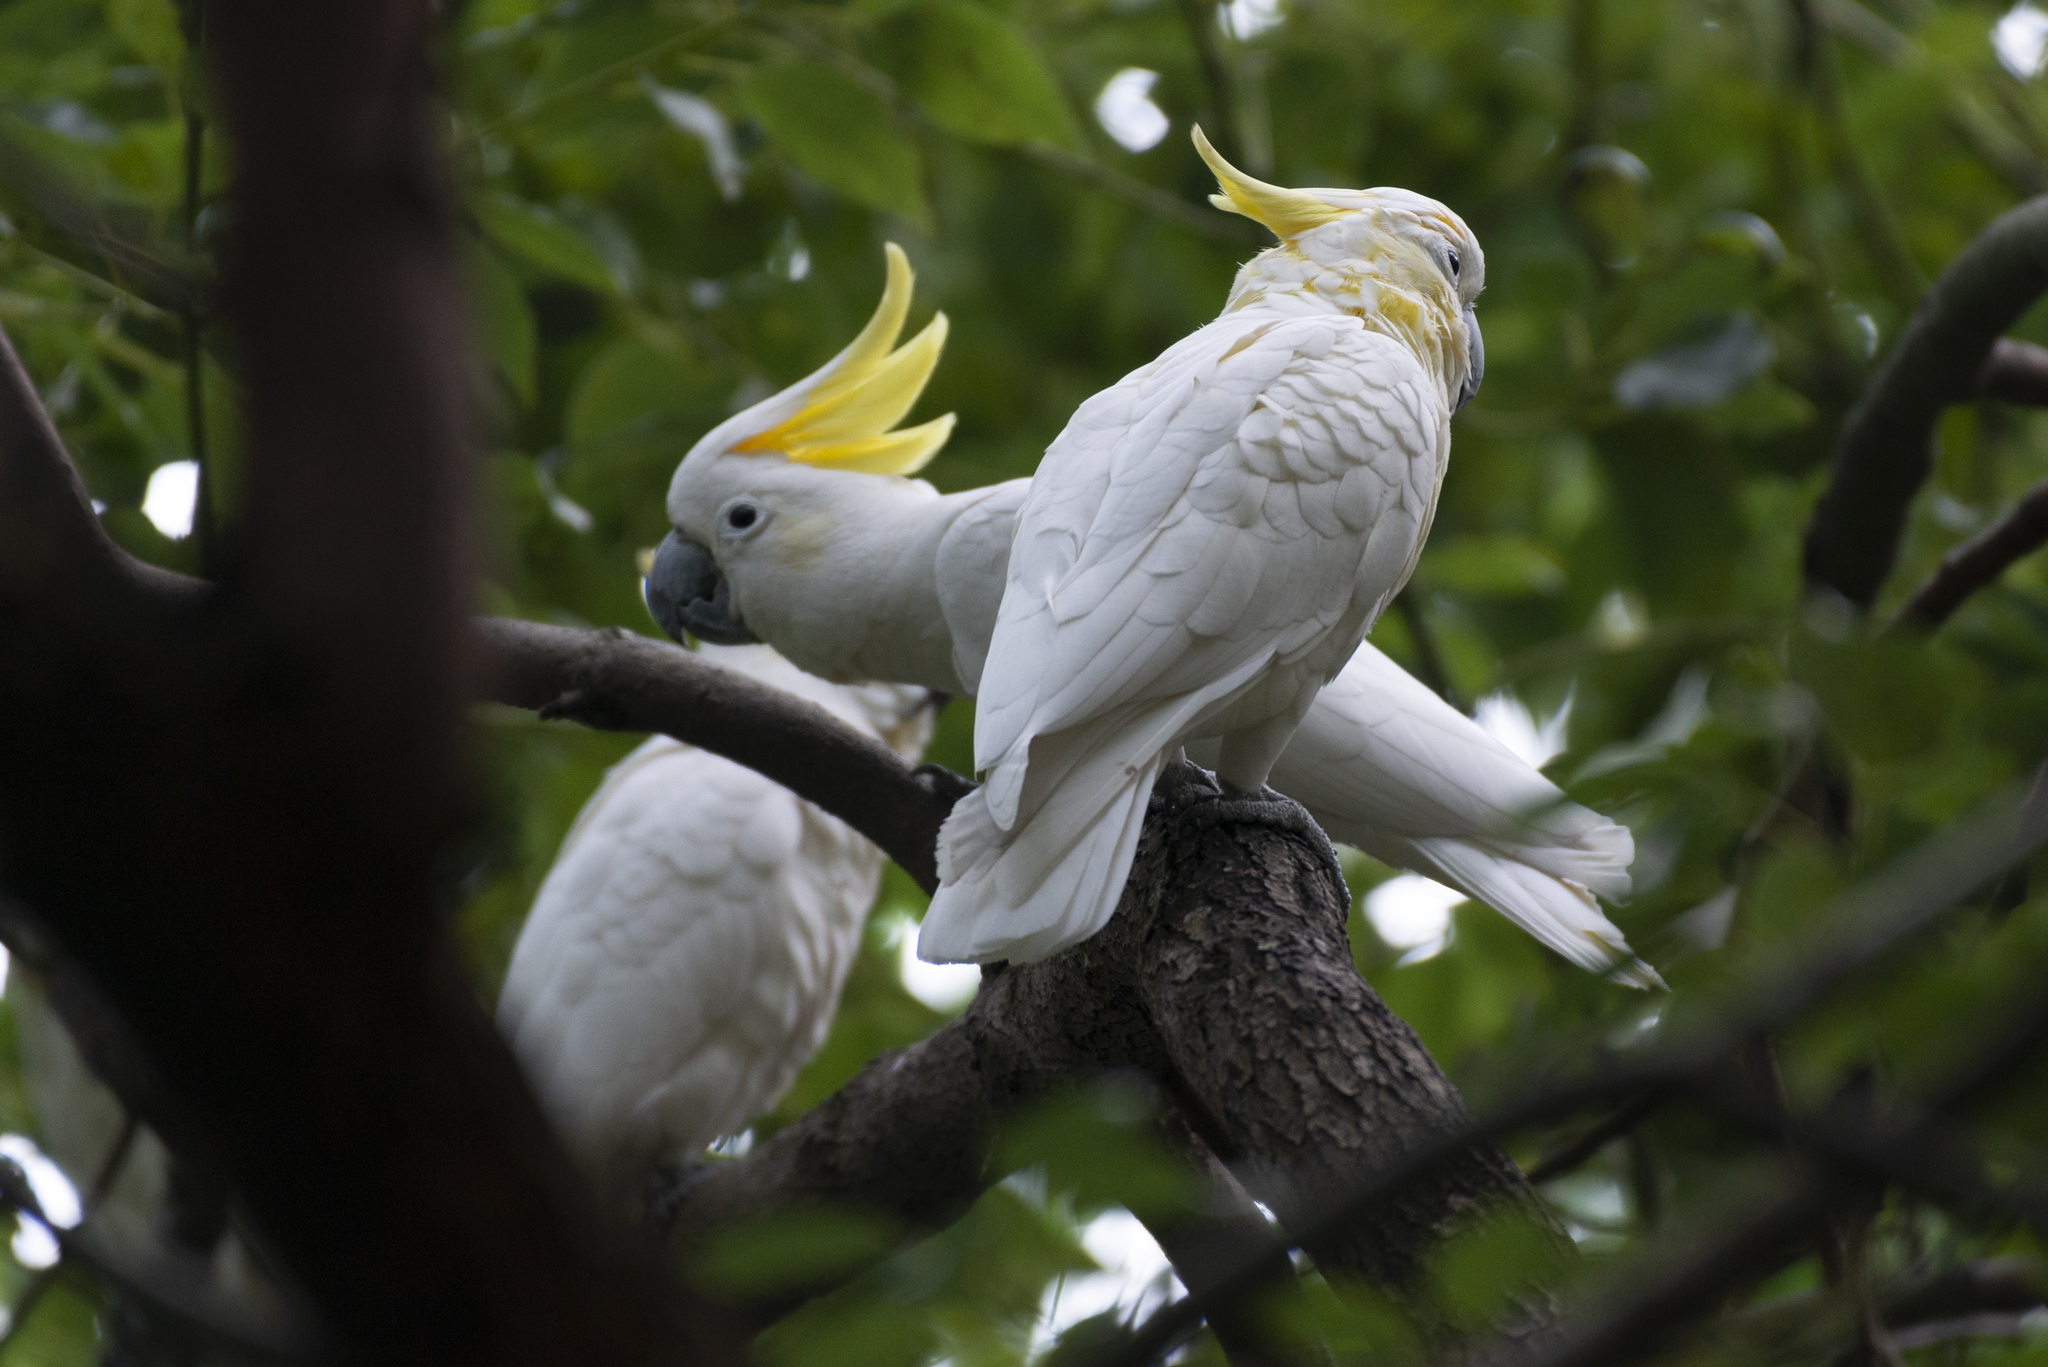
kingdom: Animalia
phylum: Chordata
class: Aves
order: Psittaciformes
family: Psittacidae
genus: Cacatua
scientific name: Cacatua sulphurea
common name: Yellow-crested cockatoo
